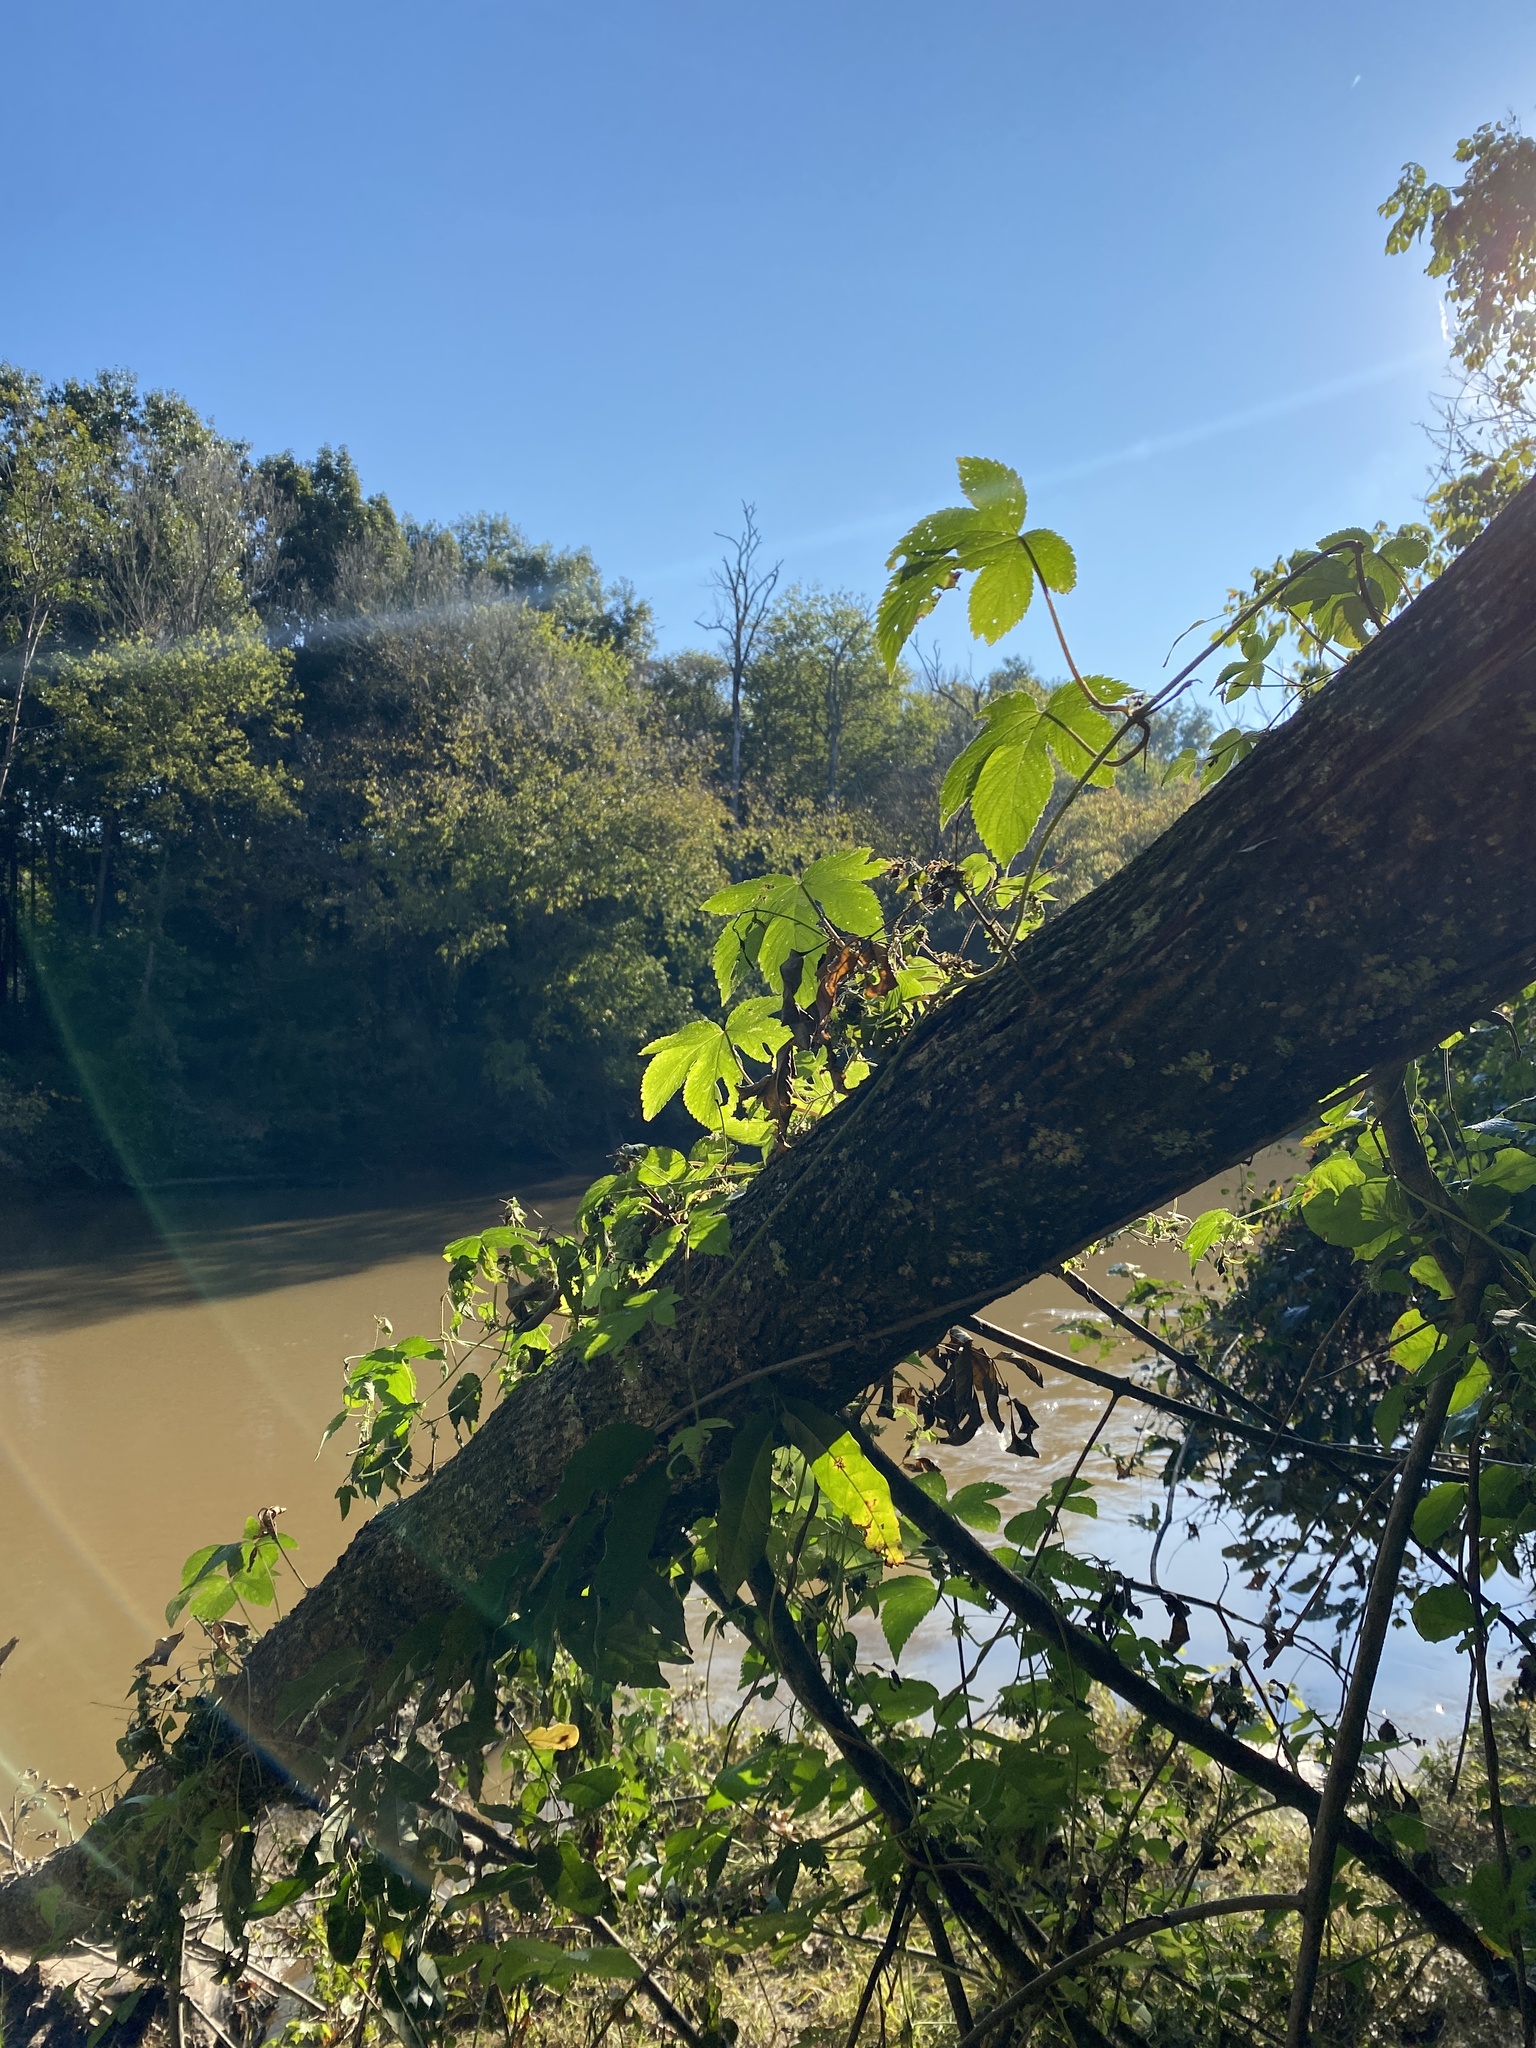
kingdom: Plantae
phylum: Tracheophyta
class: Magnoliopsida
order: Rosales
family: Cannabaceae
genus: Humulus
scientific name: Humulus scandens
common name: Japanese hop
